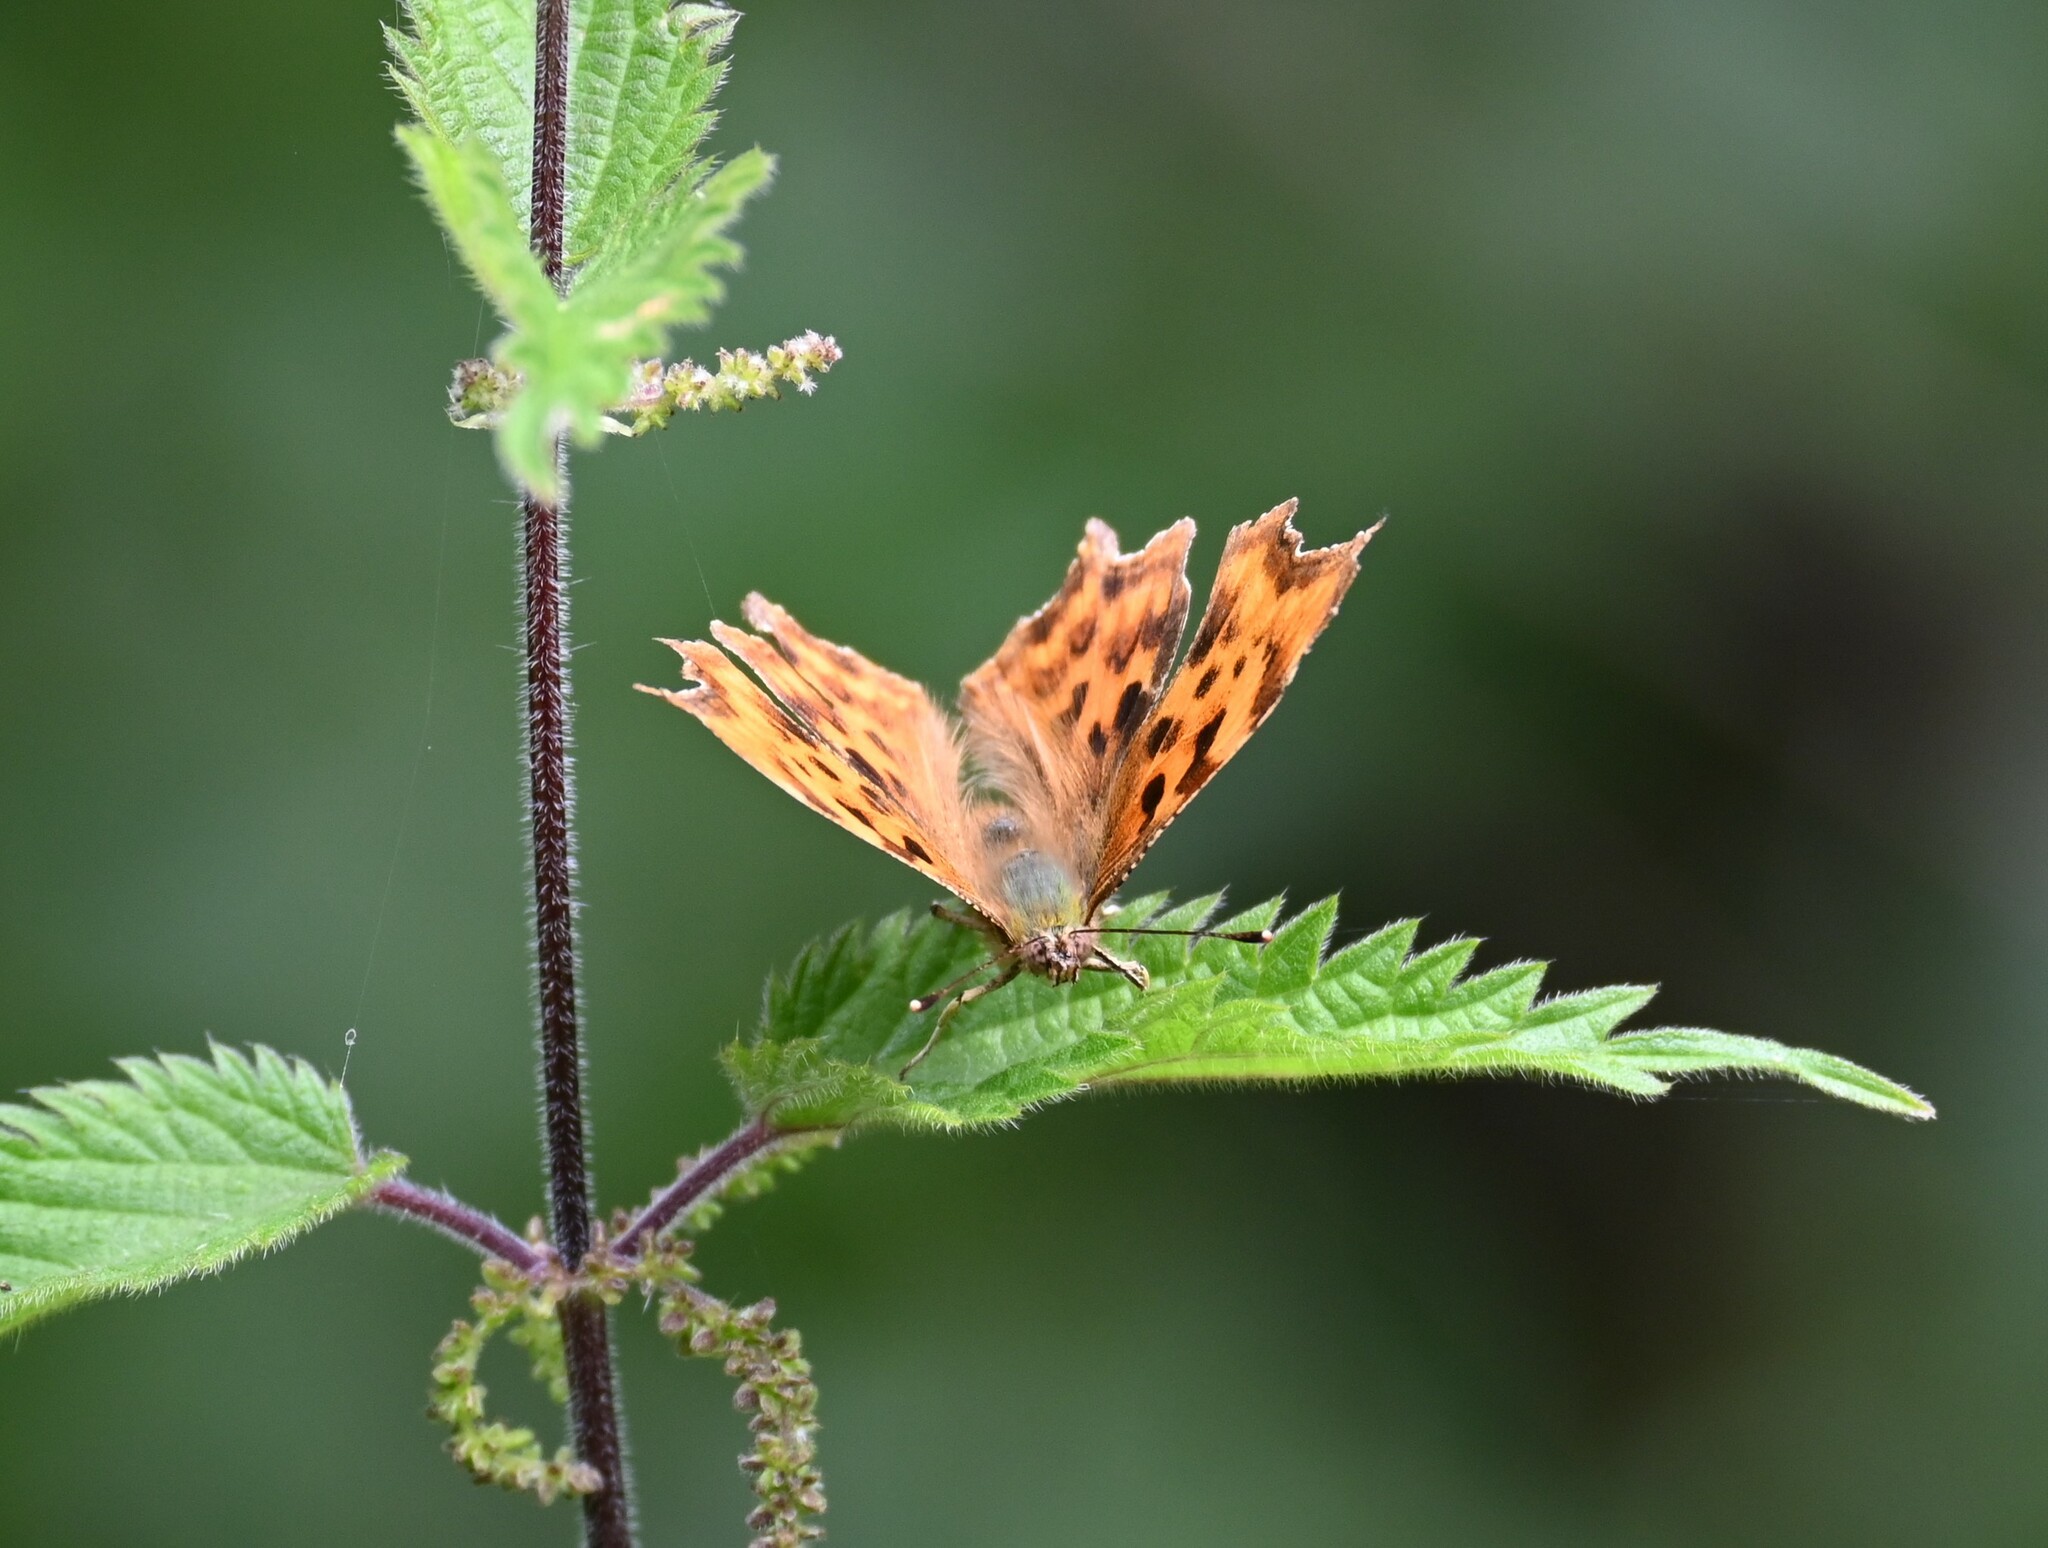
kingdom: Animalia
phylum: Arthropoda
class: Insecta
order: Lepidoptera
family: Nymphalidae
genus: Polygonia
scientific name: Polygonia c-album
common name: Comma
